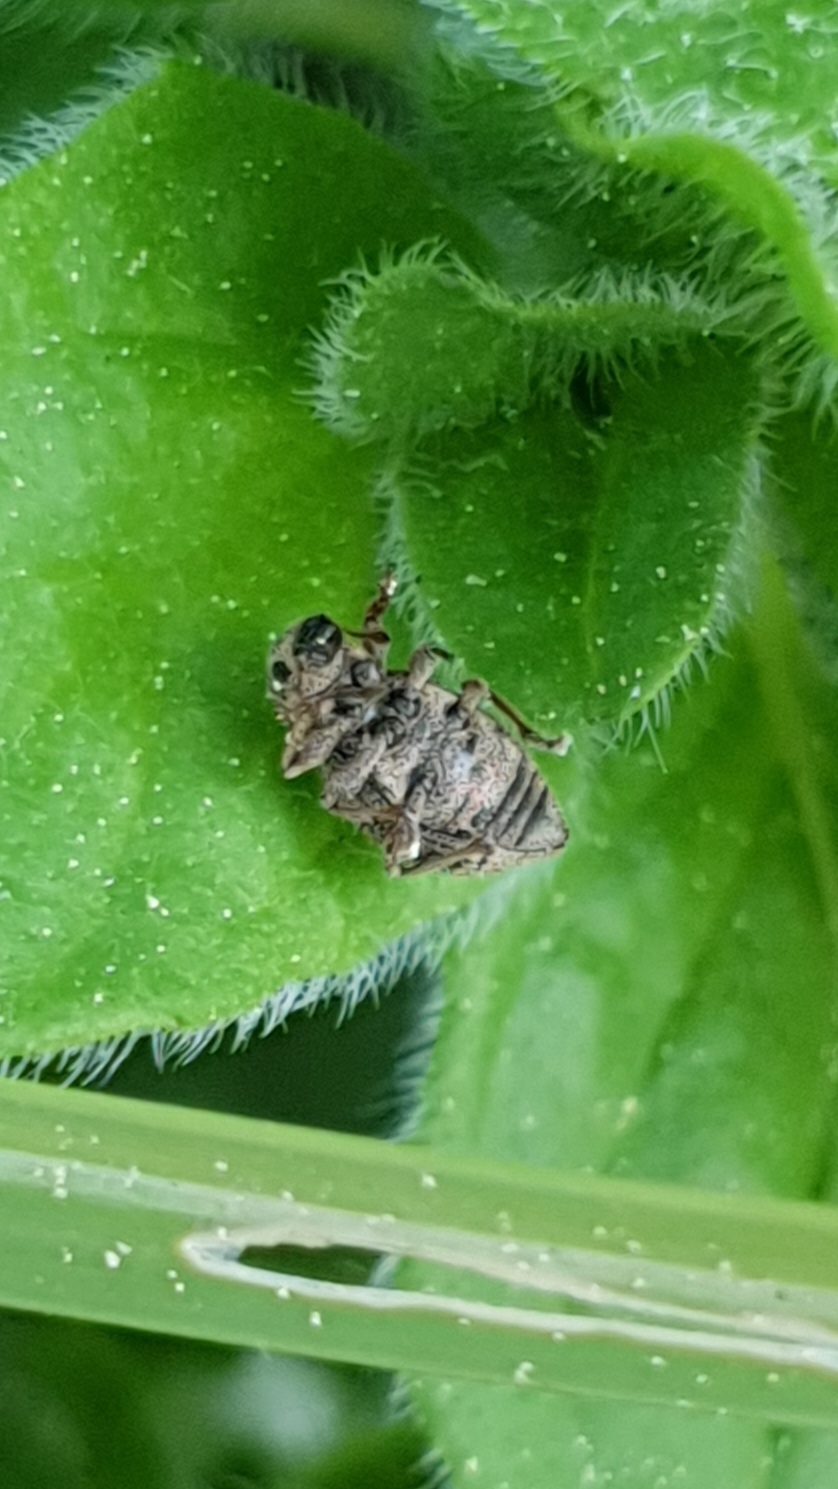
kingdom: Animalia
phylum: Arthropoda
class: Insecta
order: Coleoptera
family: Curculionidae
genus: Sciaphilus
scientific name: Sciaphilus asperatus
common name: Weevil
